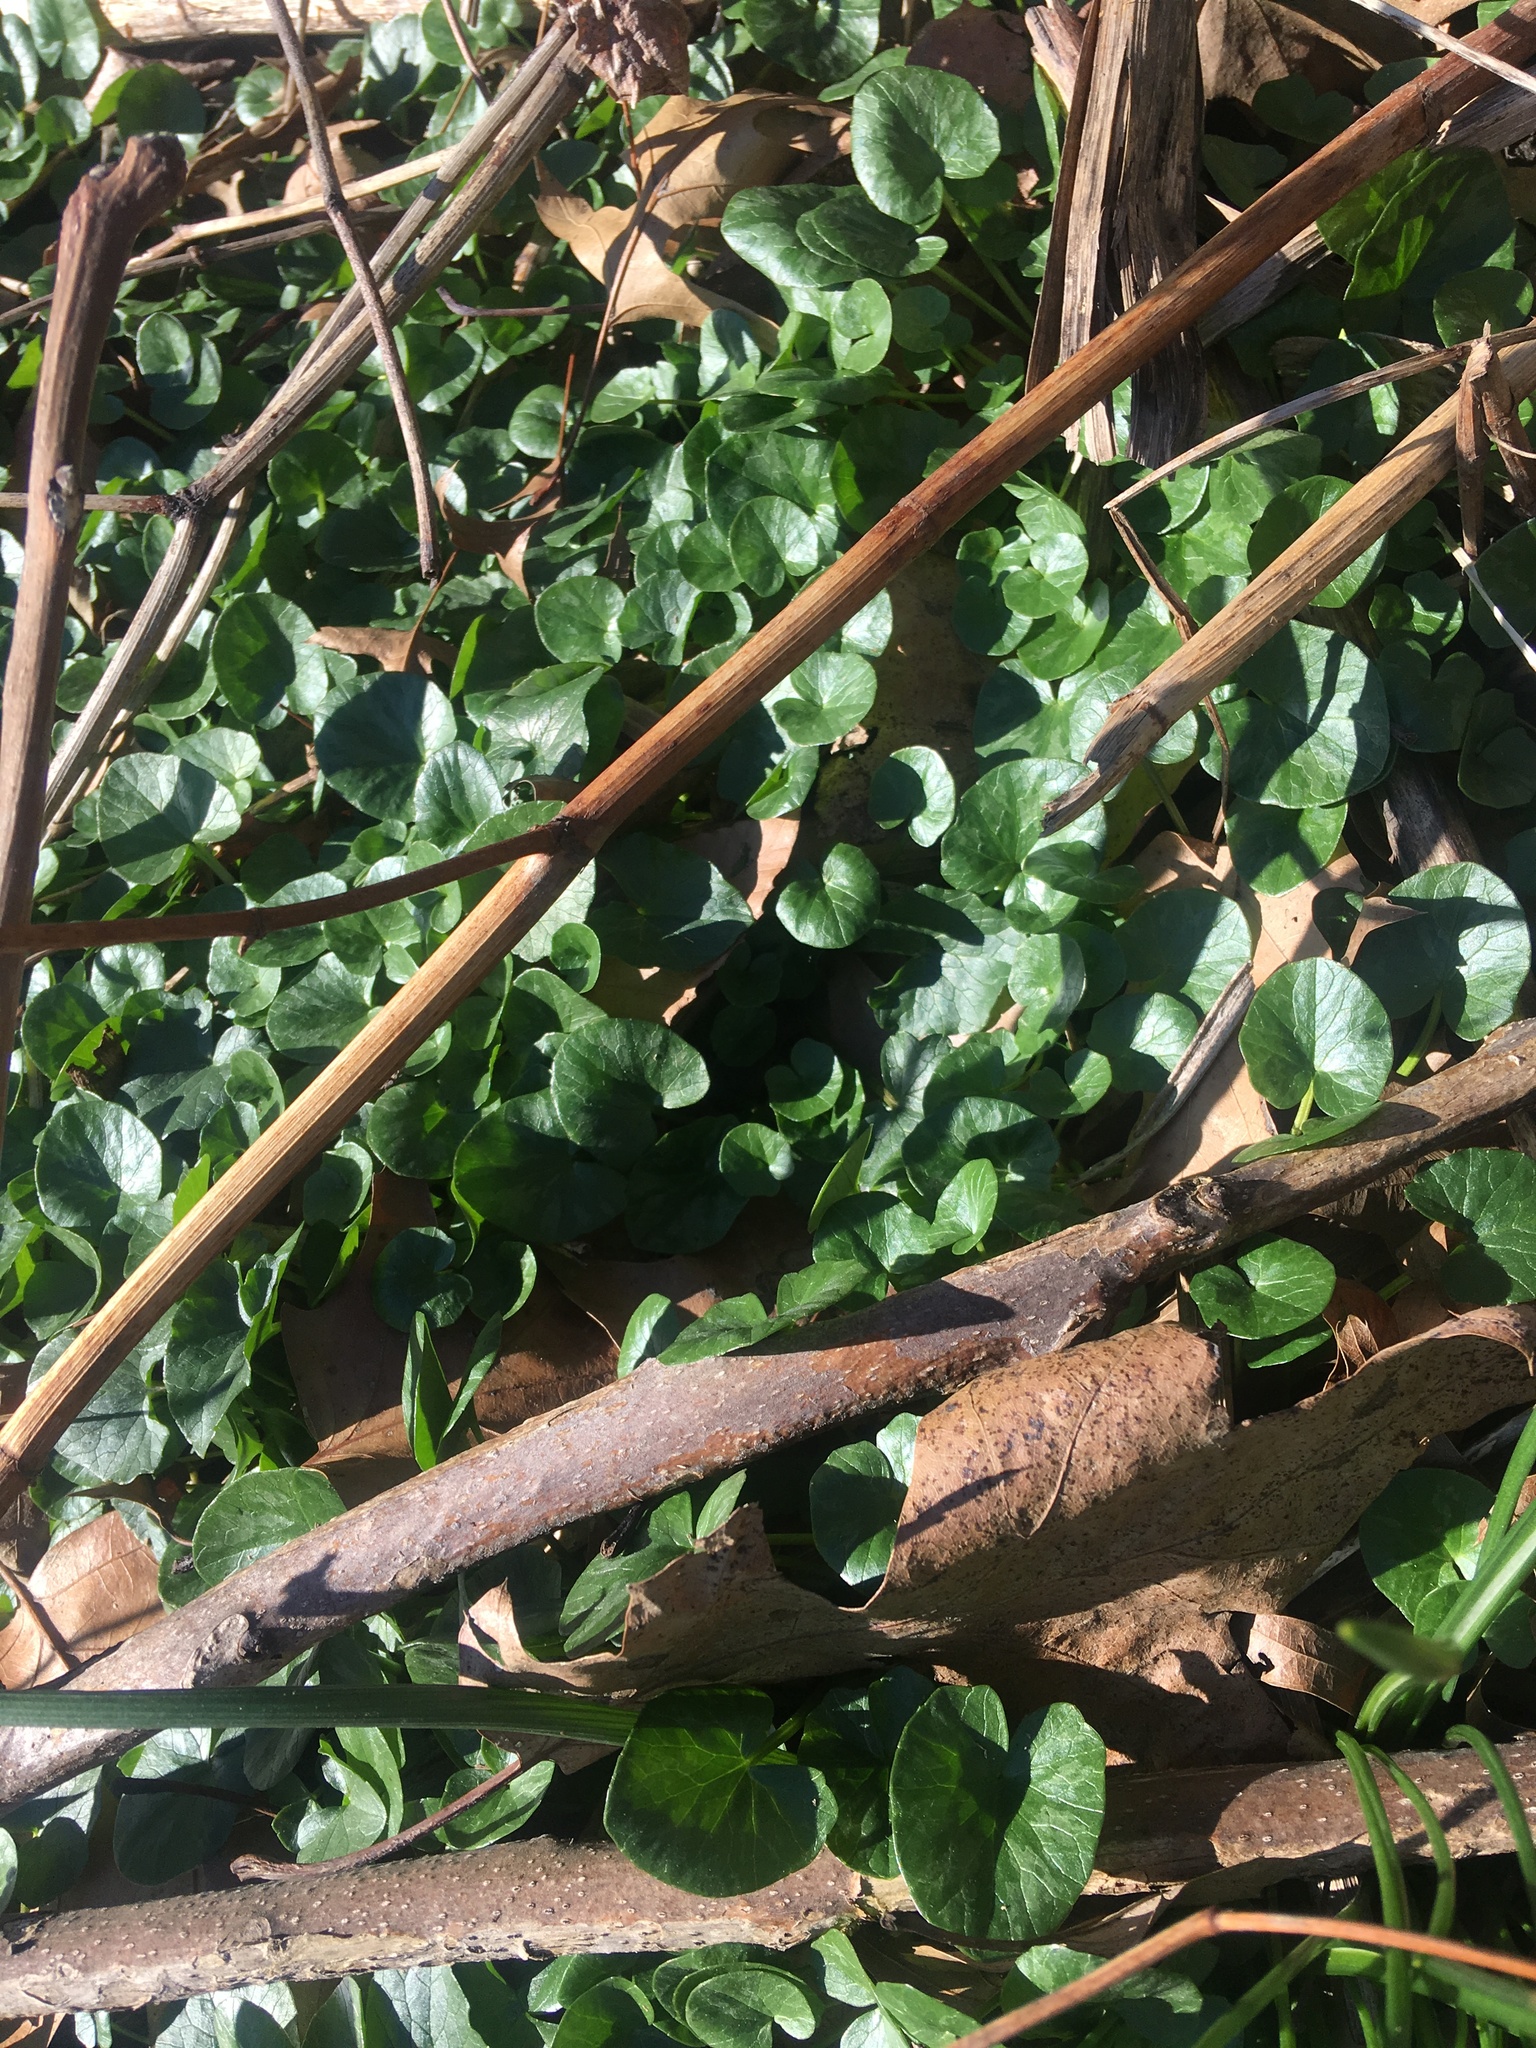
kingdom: Plantae
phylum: Tracheophyta
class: Magnoliopsida
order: Ranunculales
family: Ranunculaceae
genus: Ficaria
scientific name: Ficaria verna
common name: Lesser celandine
